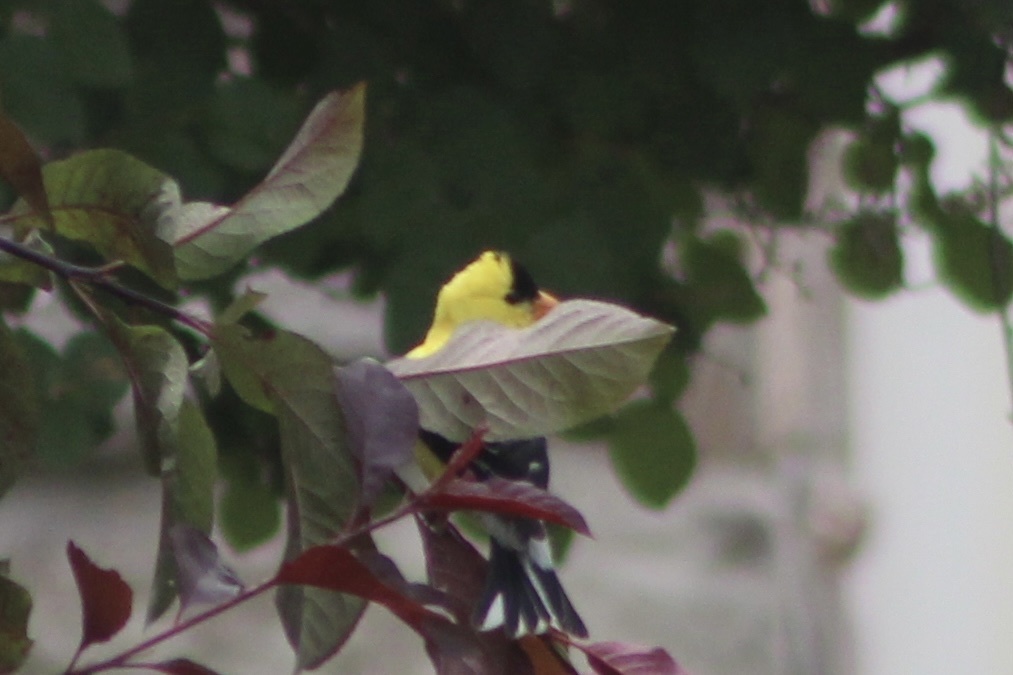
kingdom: Animalia
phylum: Chordata
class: Aves
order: Passeriformes
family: Fringillidae
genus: Spinus
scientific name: Spinus tristis
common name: American goldfinch
